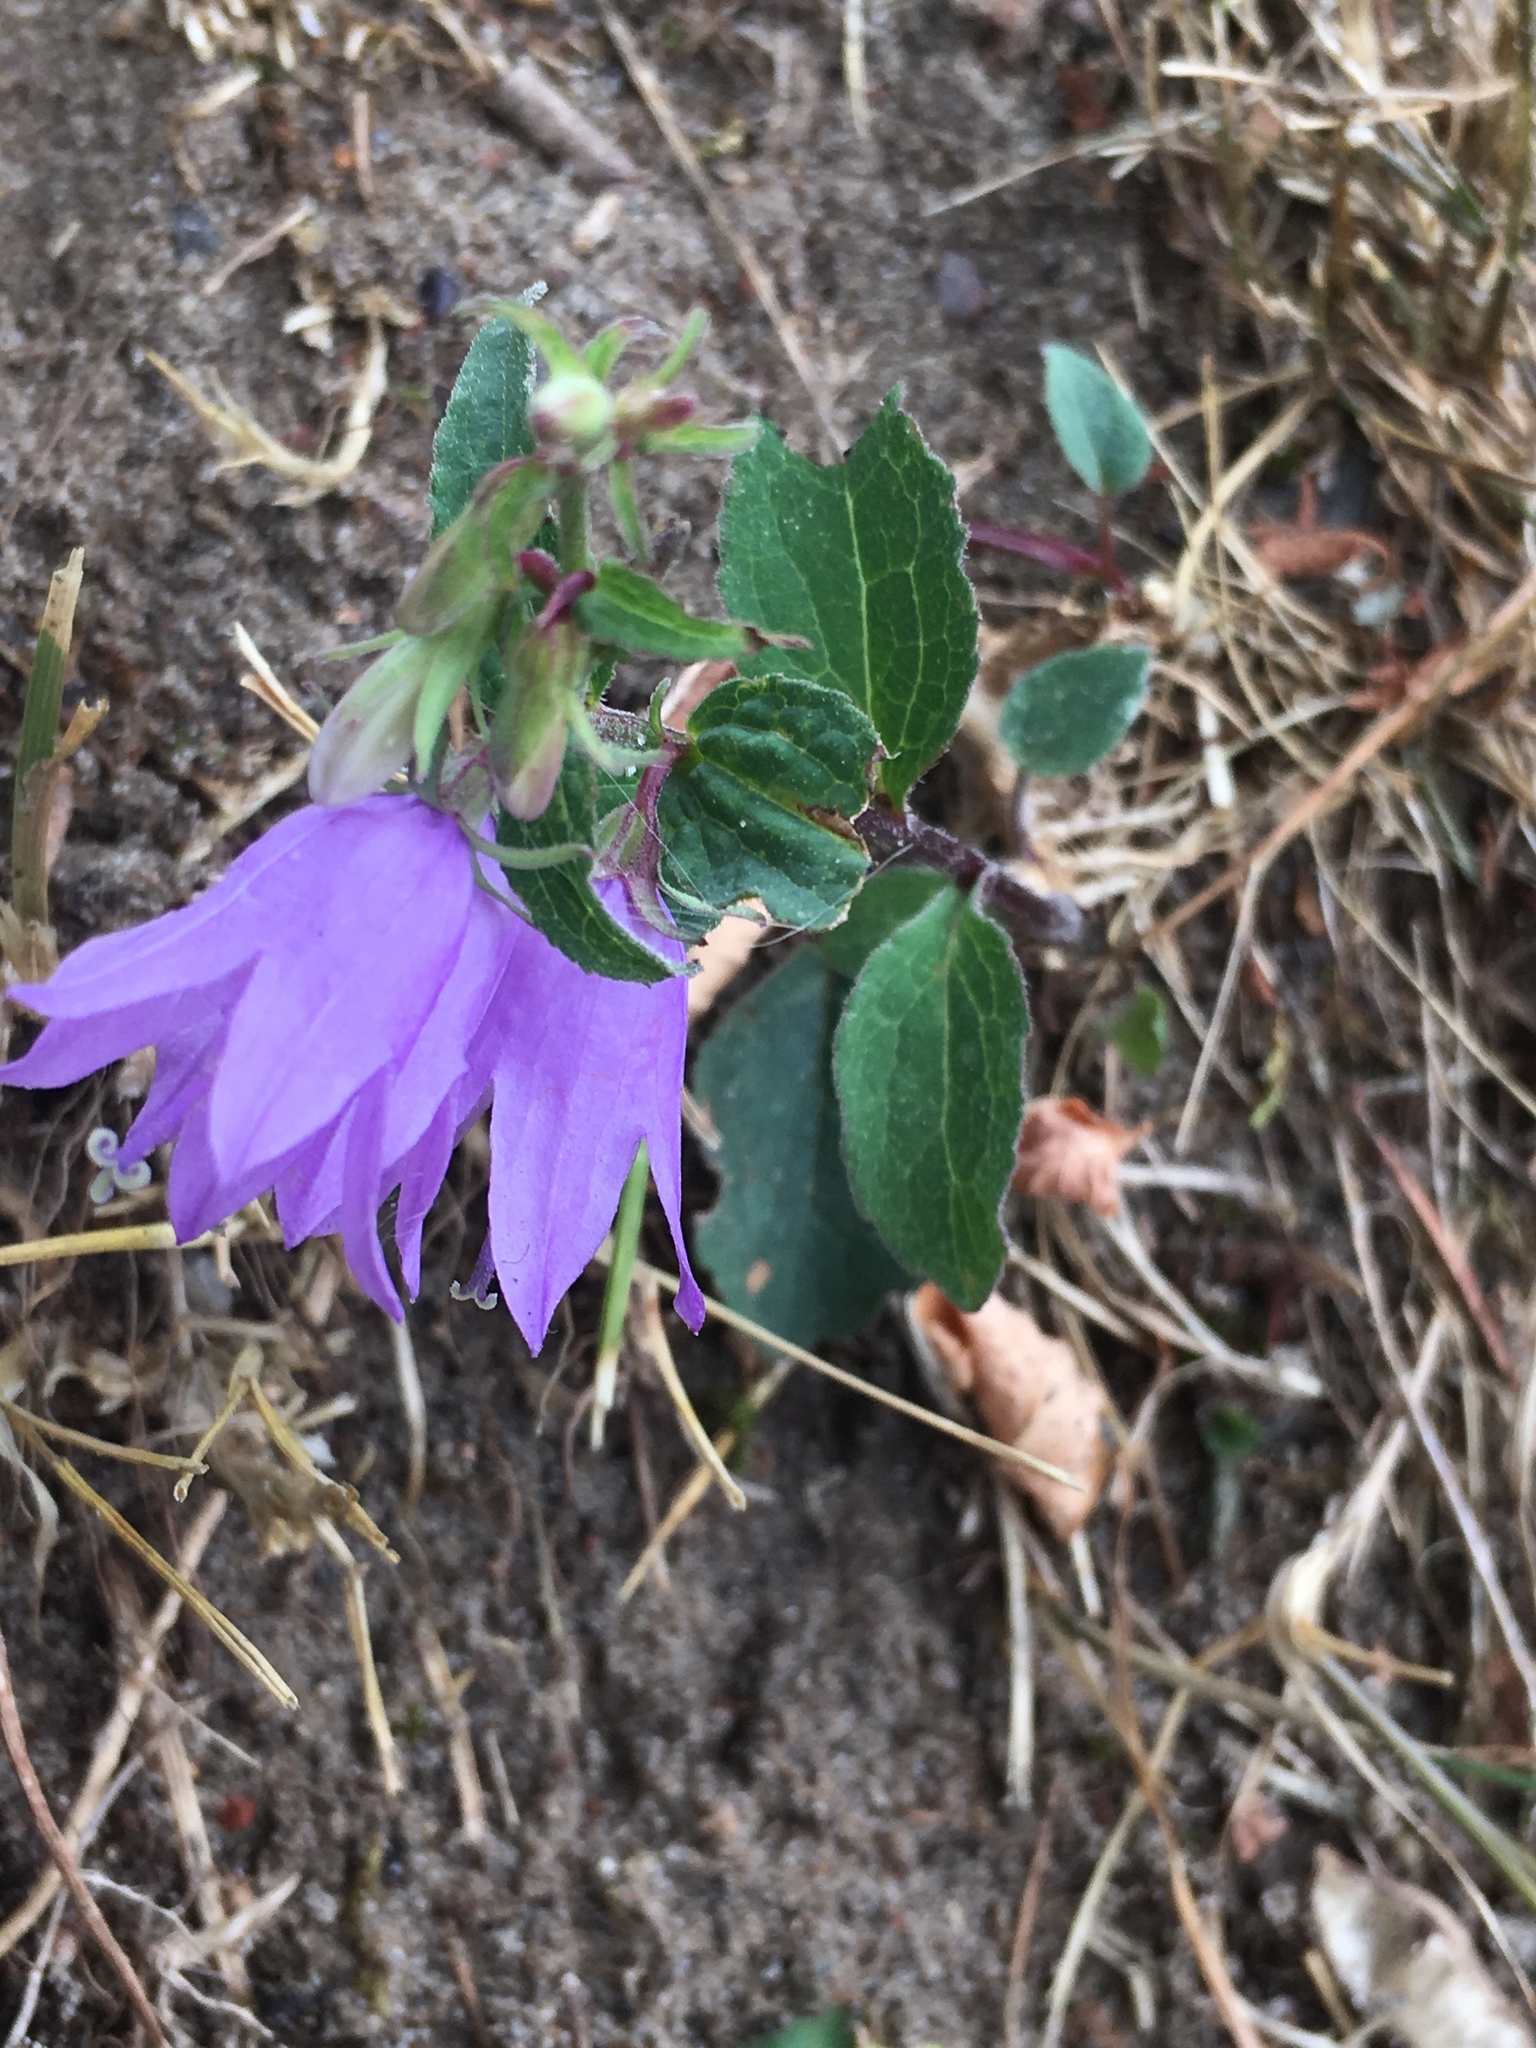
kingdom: Plantae
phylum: Tracheophyta
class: Magnoliopsida
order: Asterales
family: Campanulaceae
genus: Campanula
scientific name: Campanula trachelium
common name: Nettle-leaved bellflower
